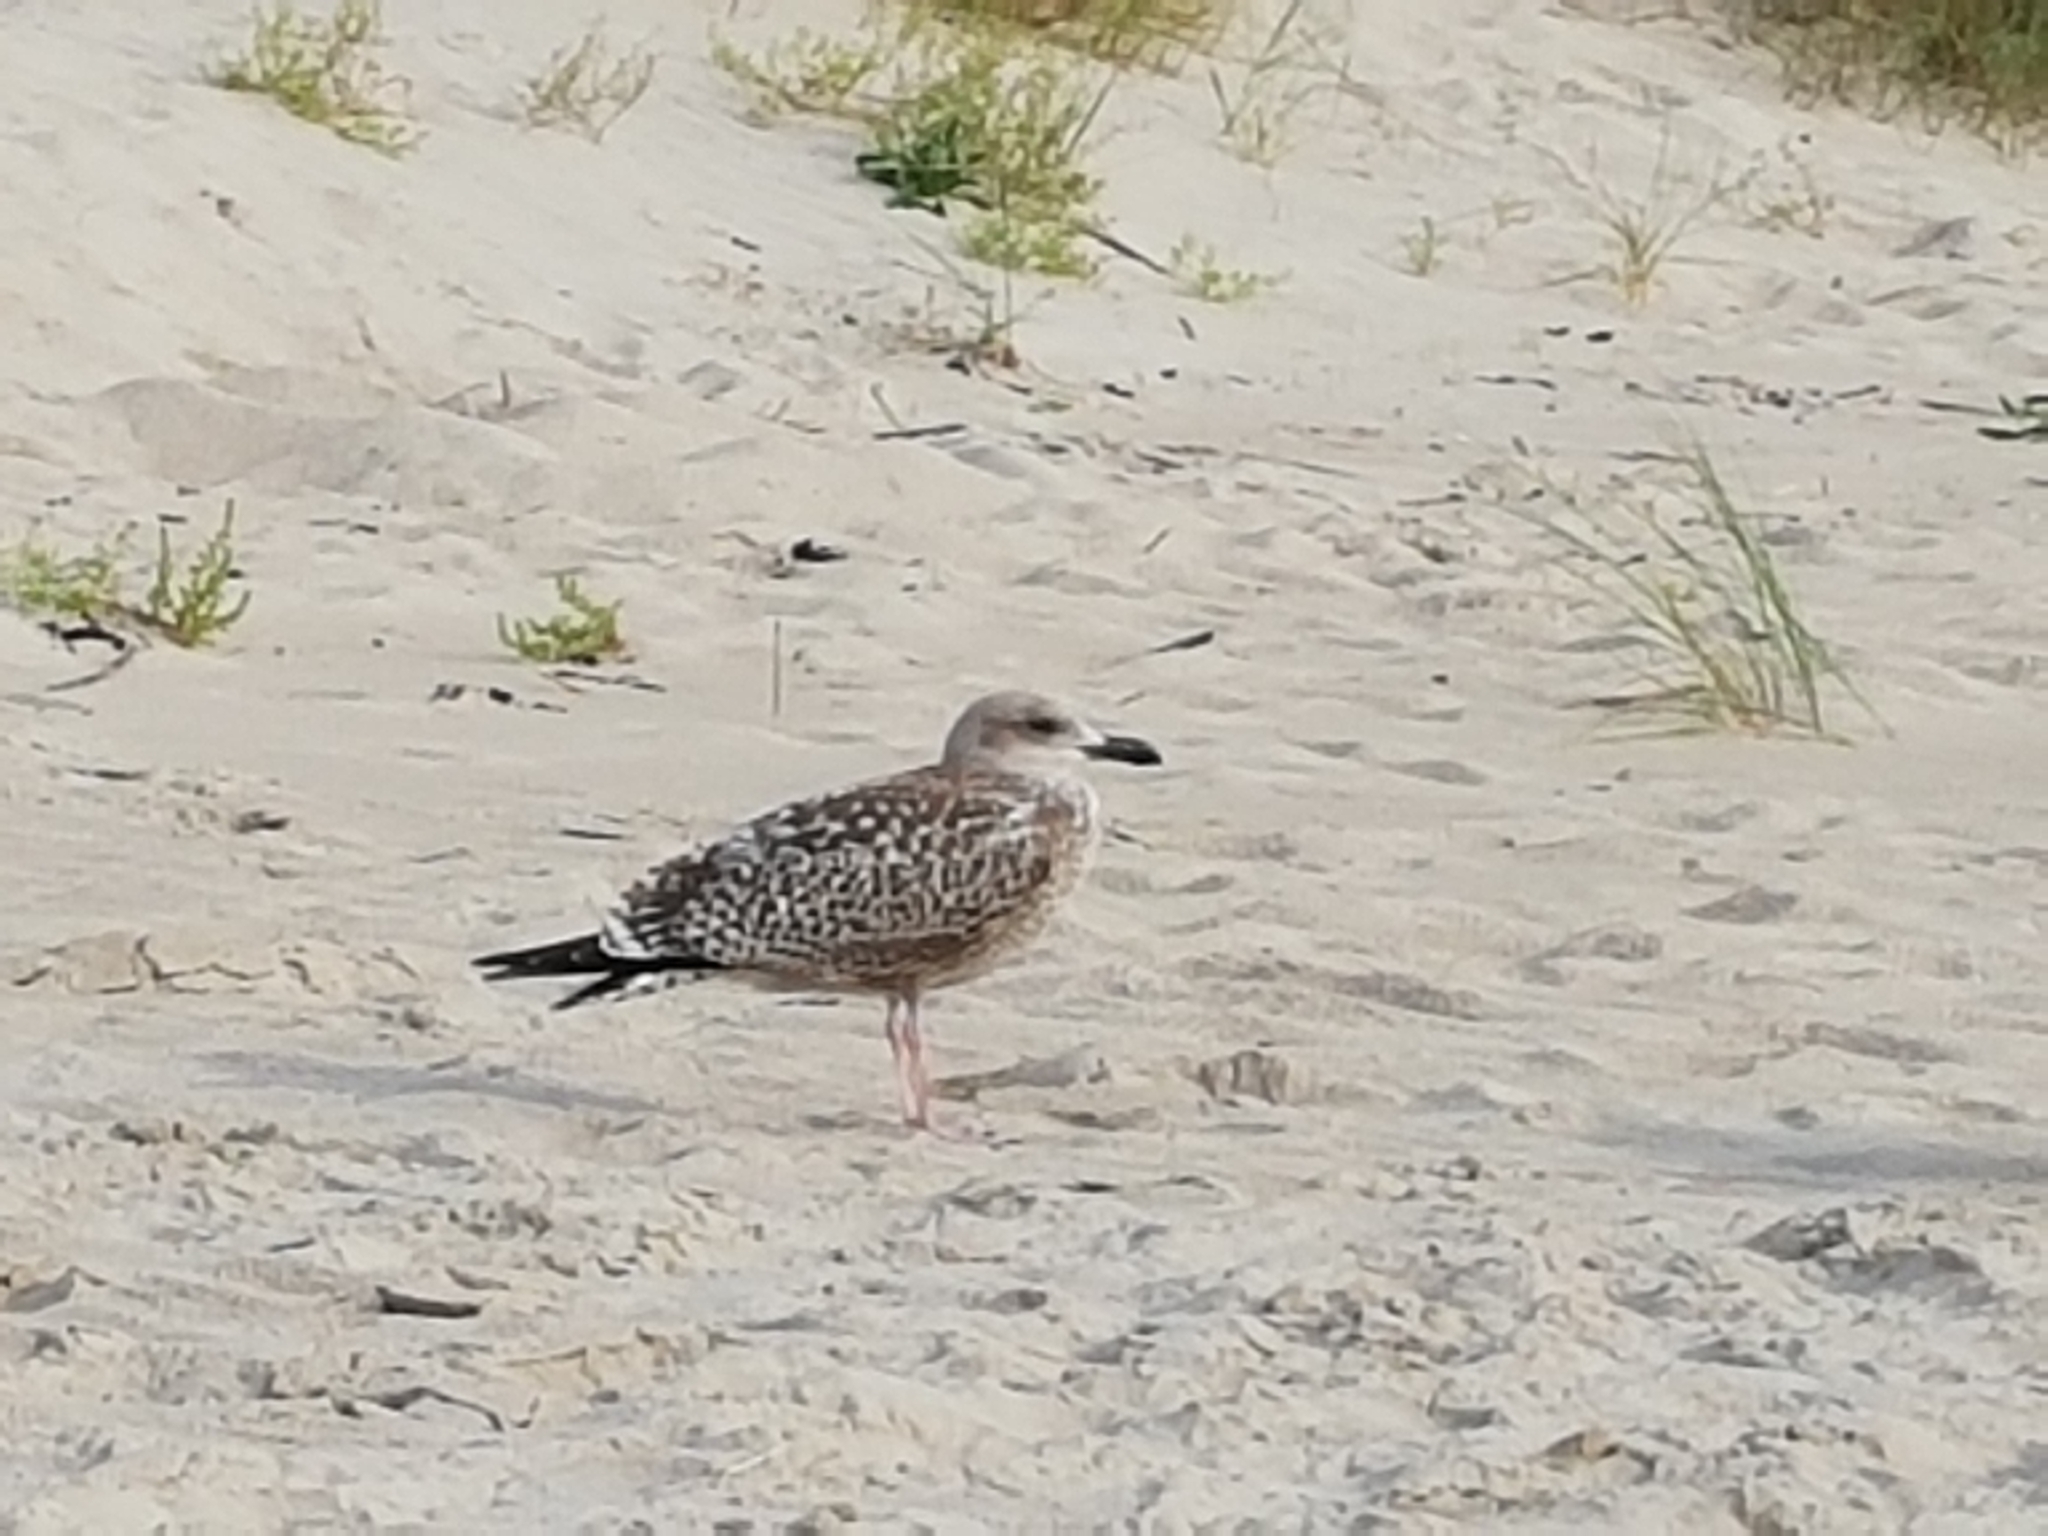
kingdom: Animalia
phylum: Chordata
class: Aves
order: Charadriiformes
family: Laridae
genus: Larus
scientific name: Larus argentatus
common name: Herring gull
